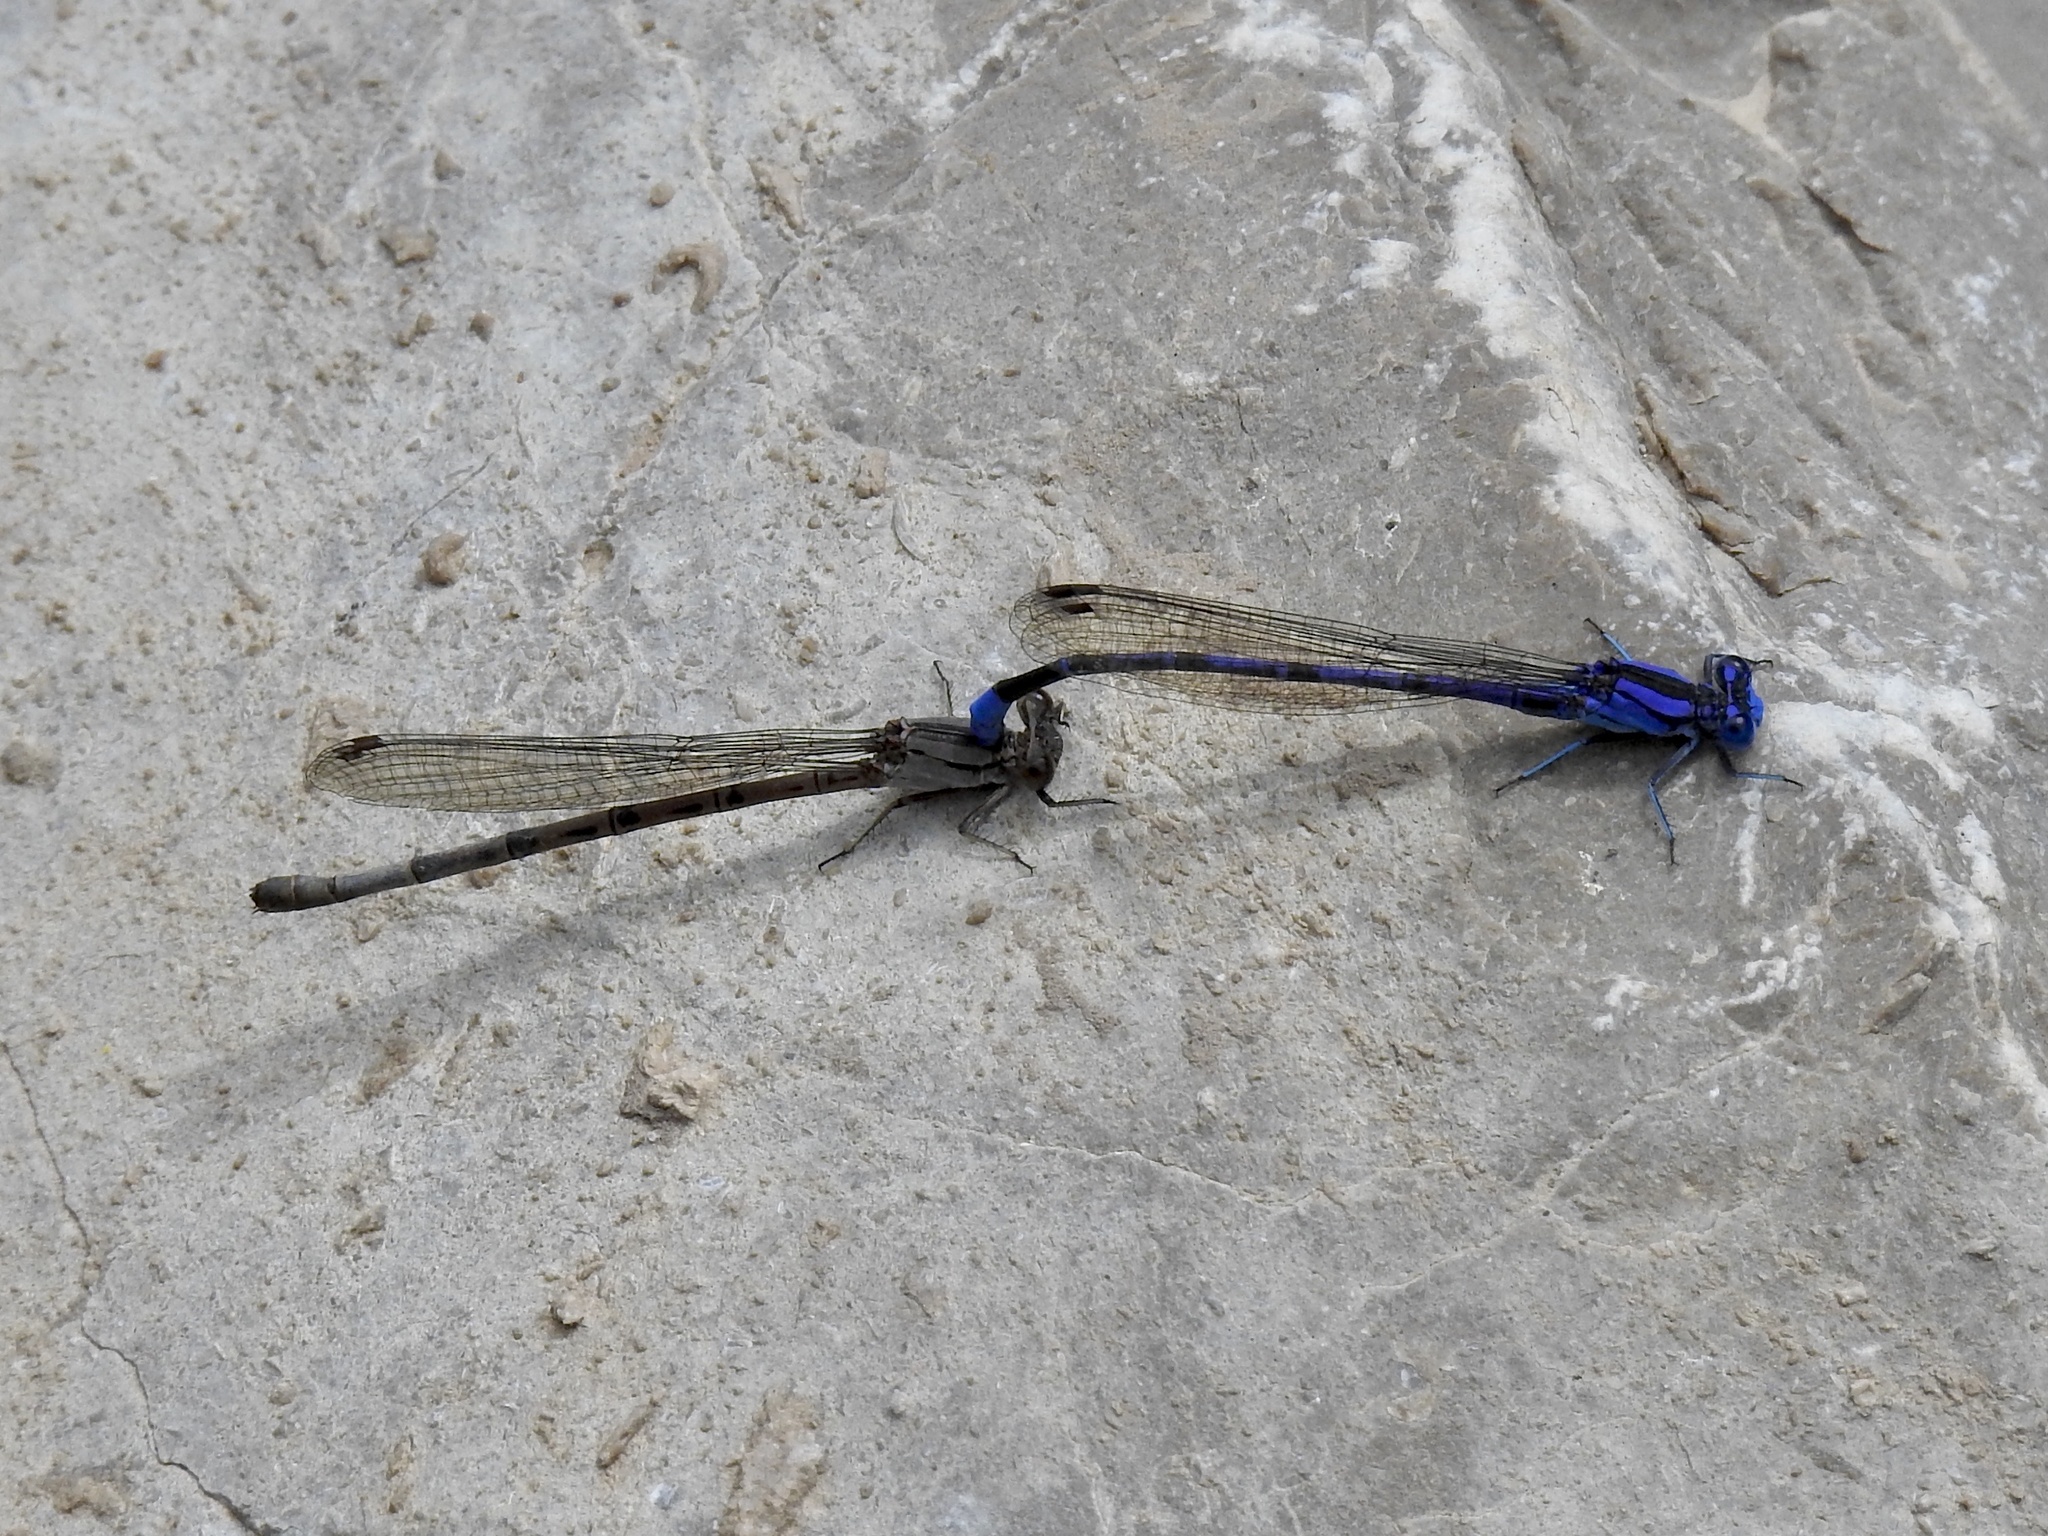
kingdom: Animalia
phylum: Arthropoda
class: Insecta
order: Odonata
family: Coenagrionidae
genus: Argia
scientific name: Argia funebris
